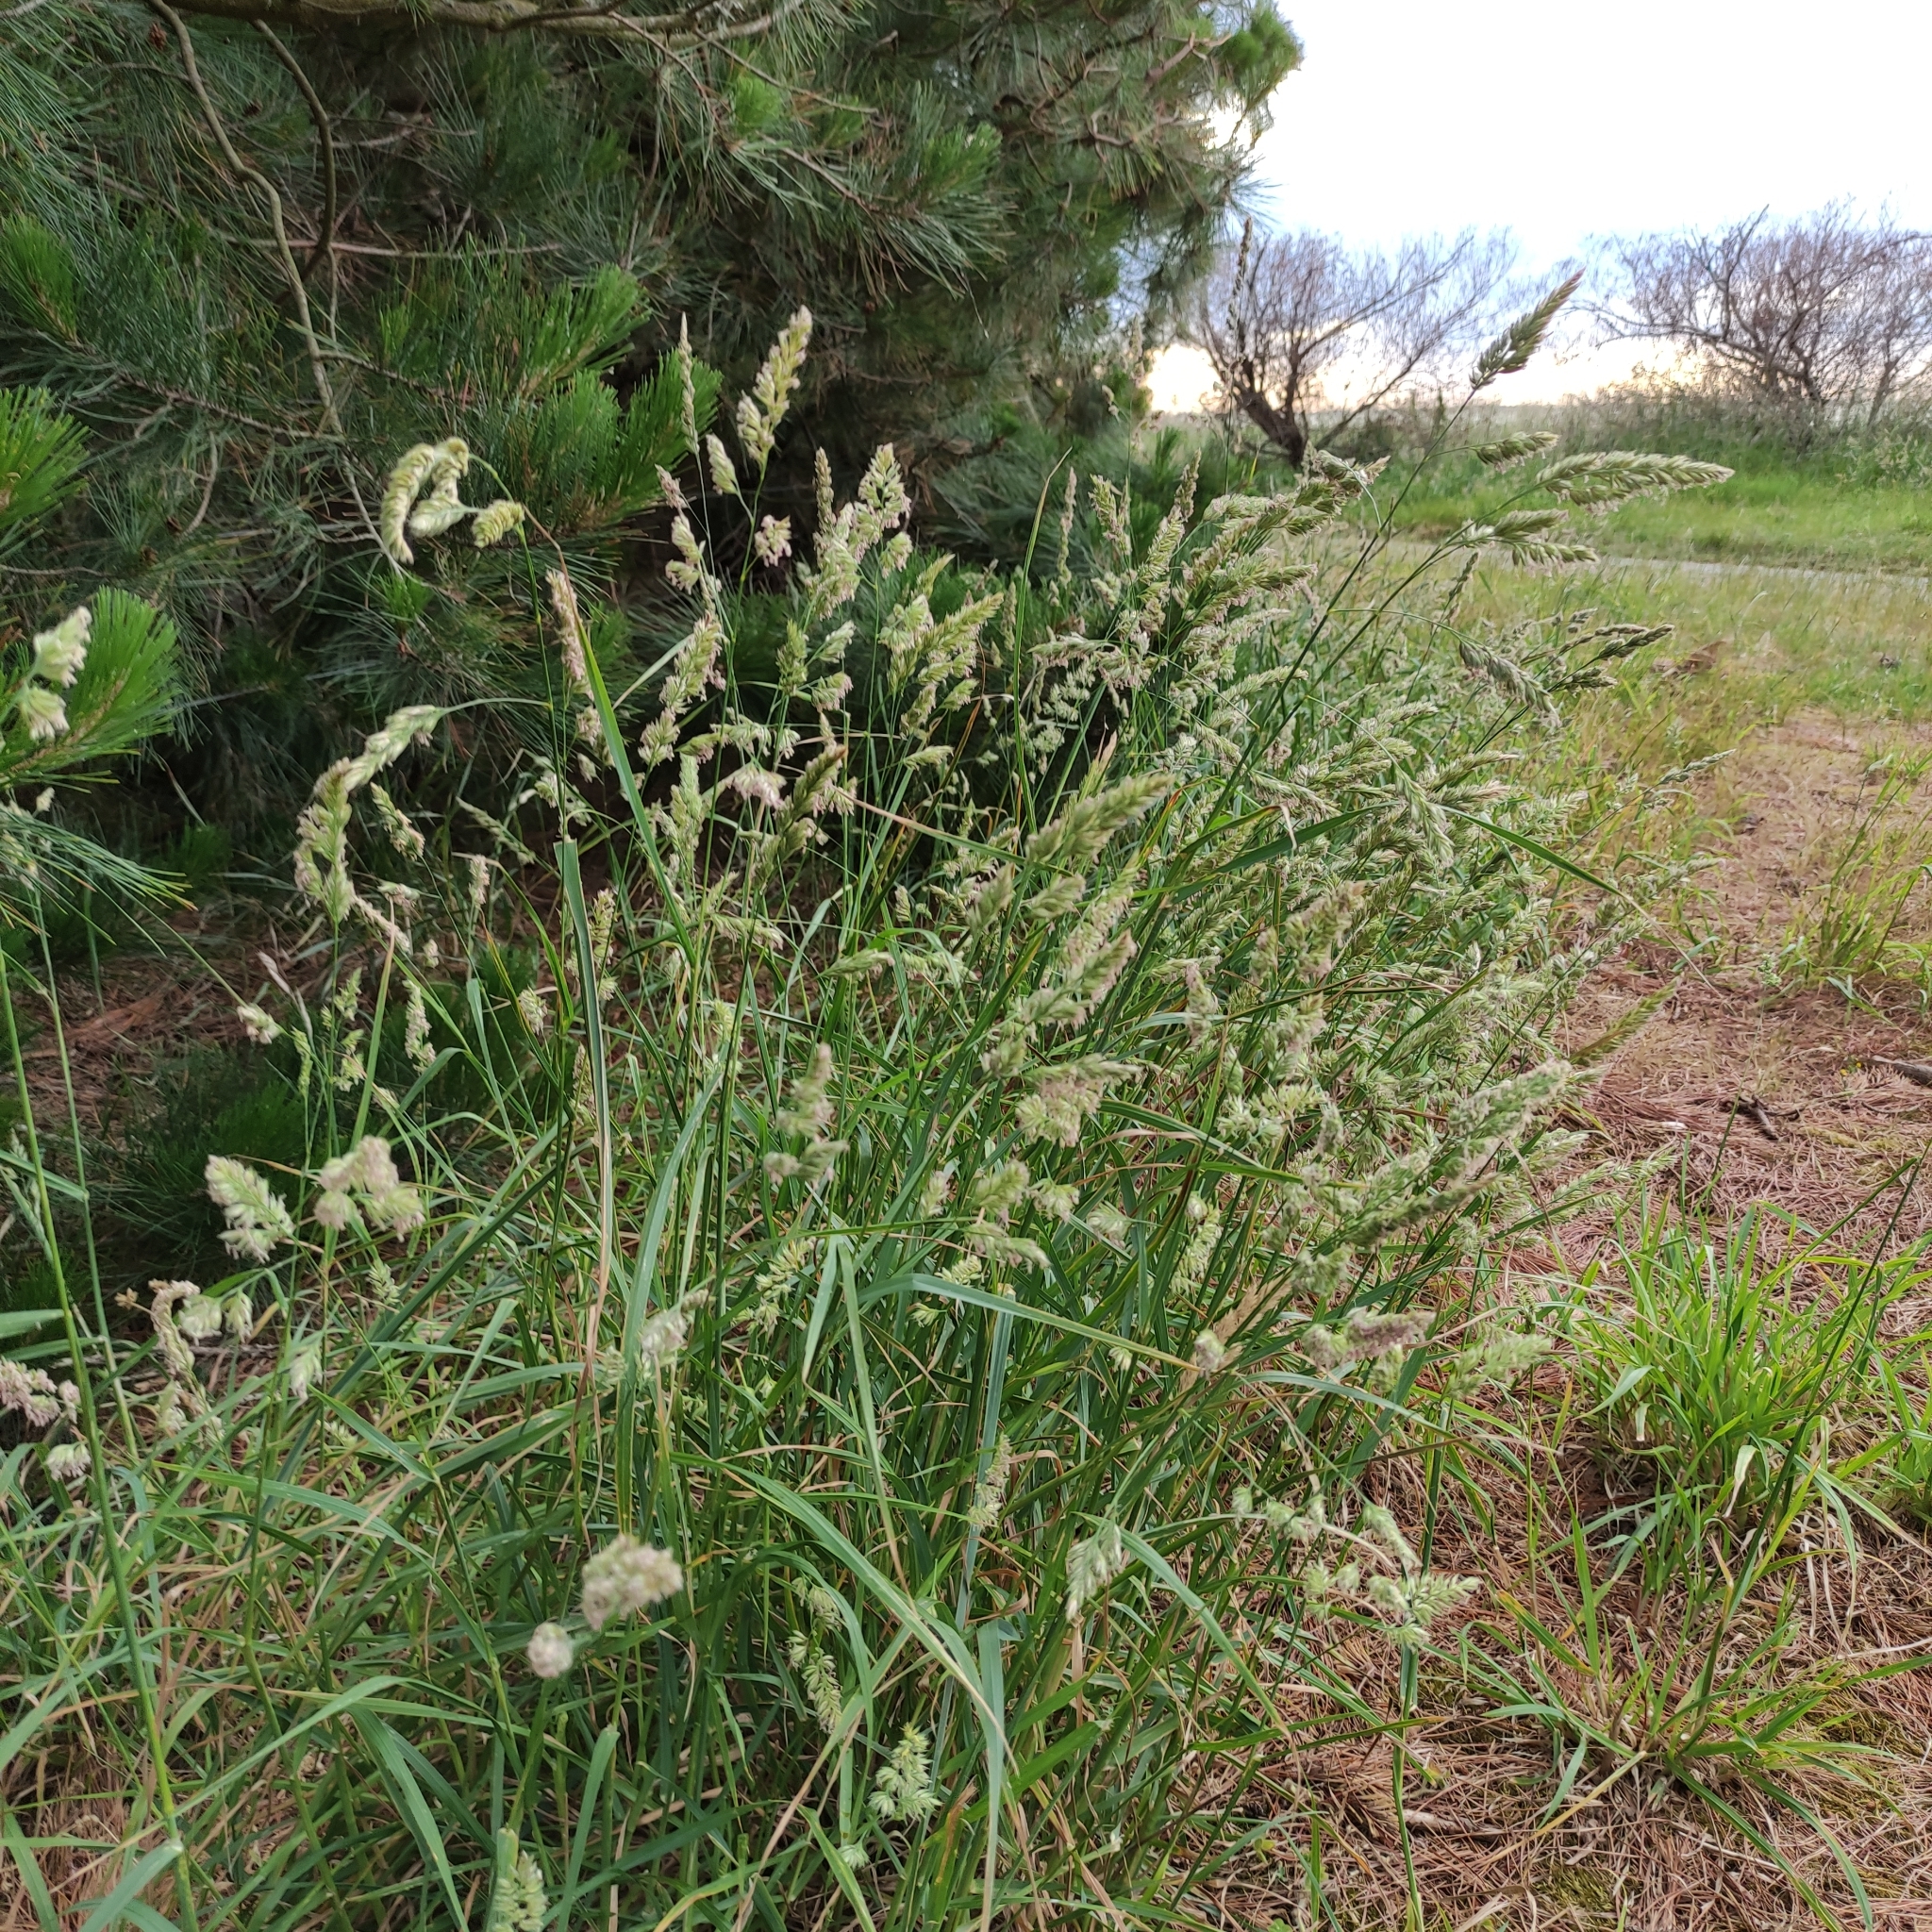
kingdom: Plantae
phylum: Tracheophyta
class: Liliopsida
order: Poales
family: Poaceae
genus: Dactylis
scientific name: Dactylis glomerata
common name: Orchardgrass
